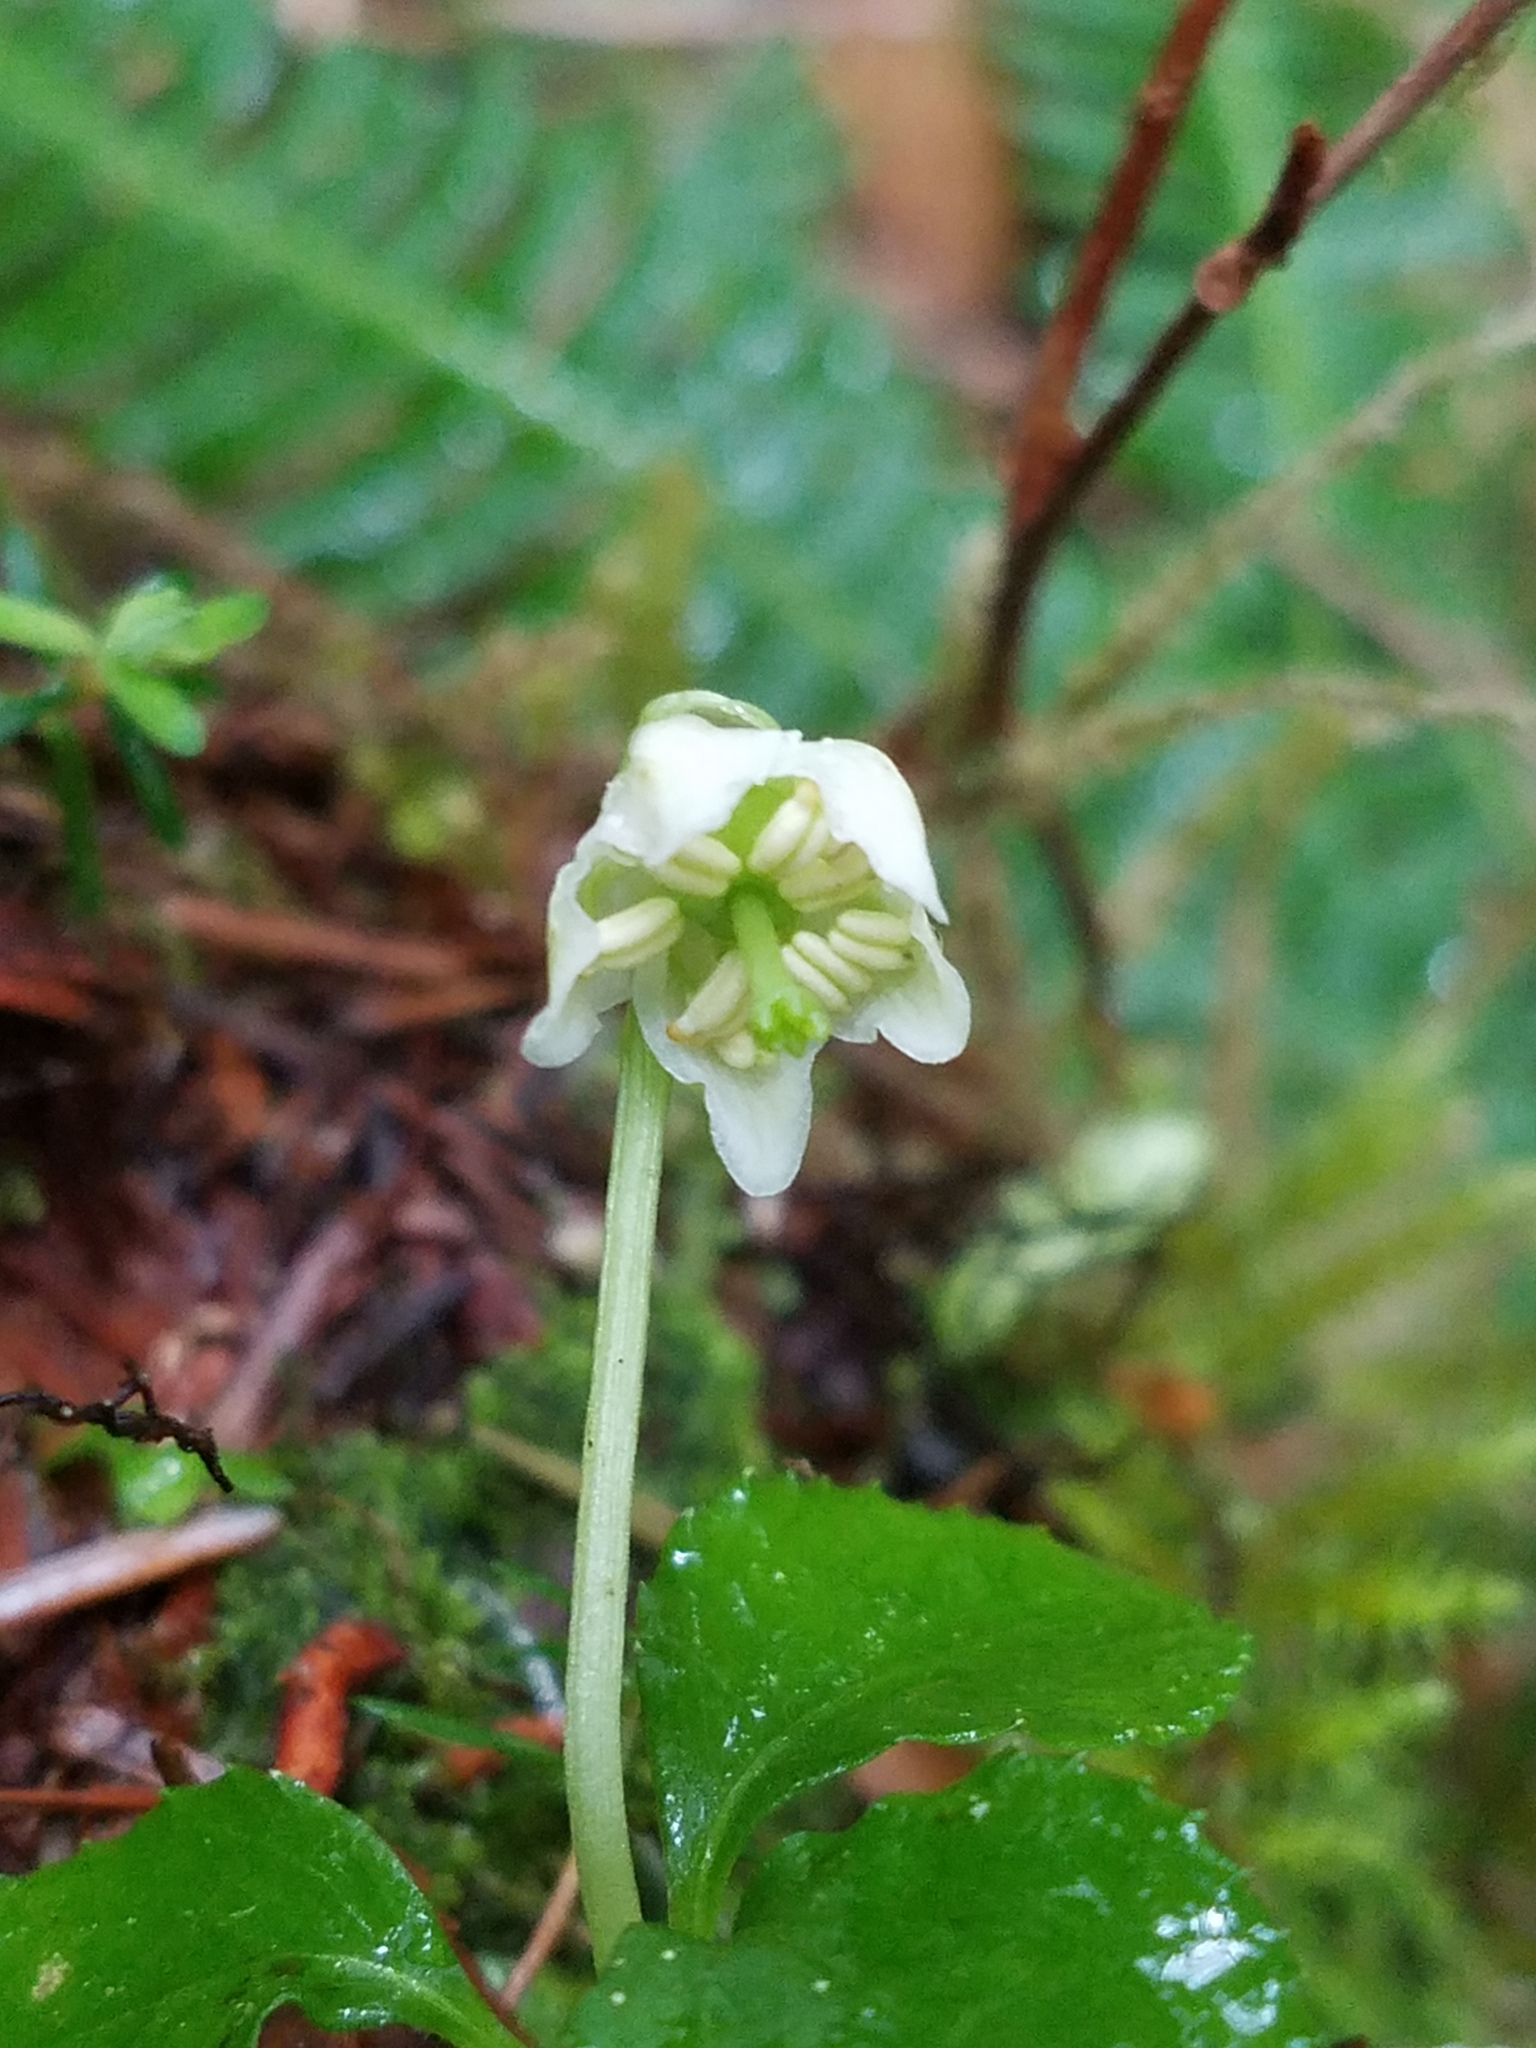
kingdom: Plantae
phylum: Tracheophyta
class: Magnoliopsida
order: Ericales
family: Ericaceae
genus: Moneses
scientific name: Moneses uniflora
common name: One-flowered wintergreen
